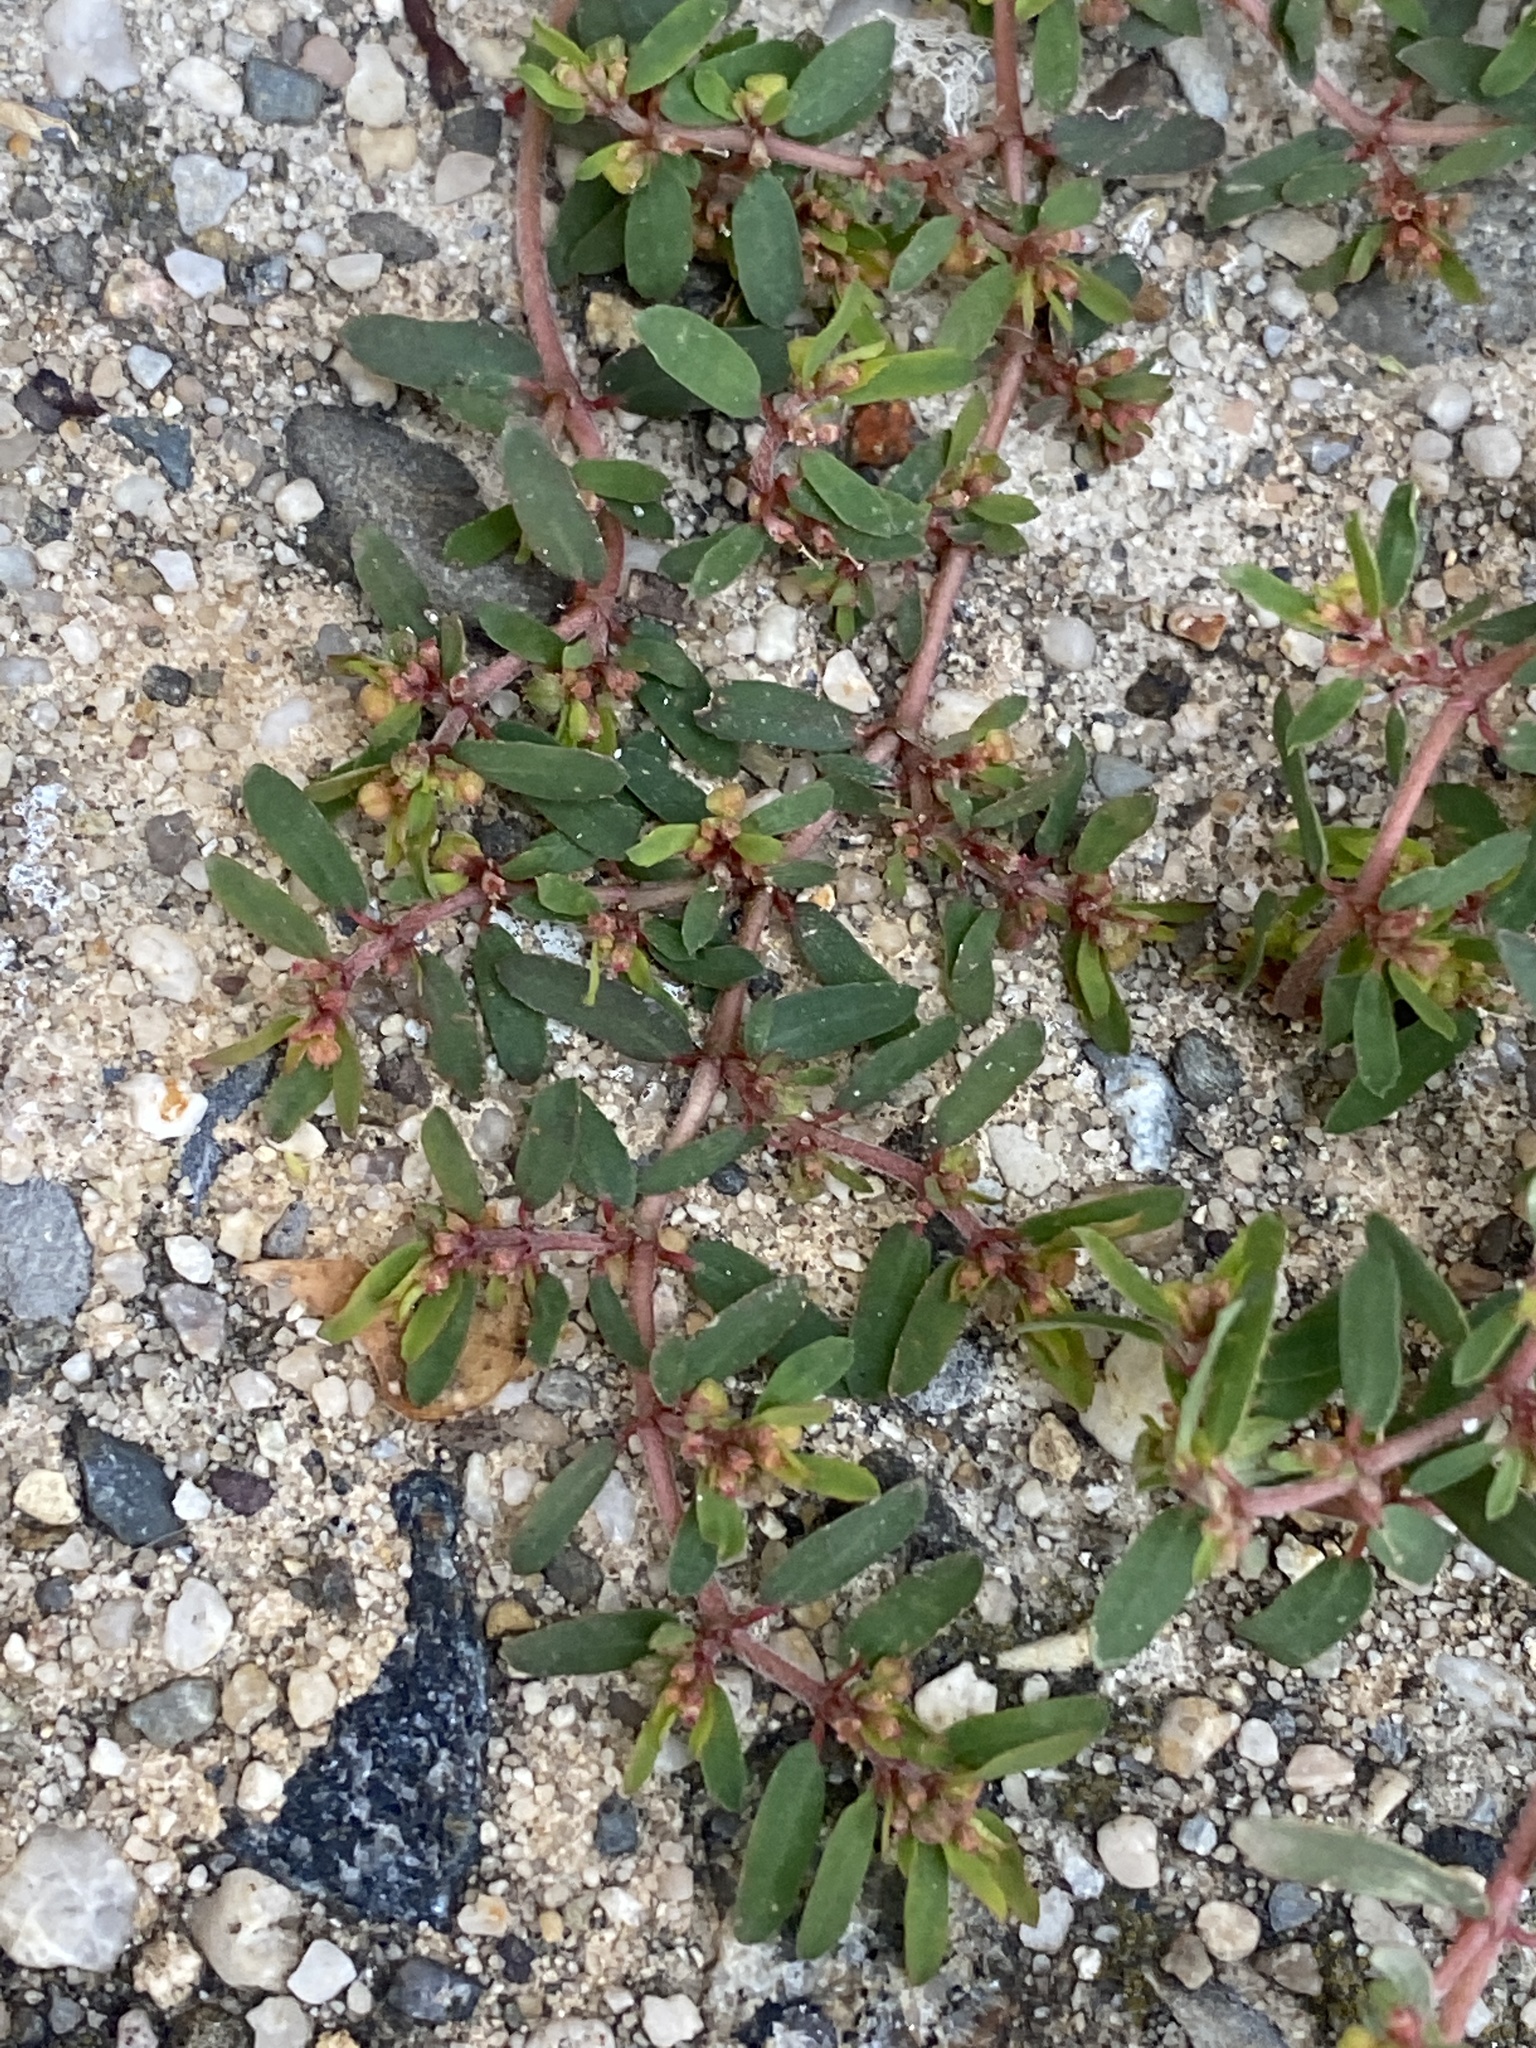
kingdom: Plantae
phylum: Tracheophyta
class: Magnoliopsida
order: Malpighiales
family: Euphorbiaceae
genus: Euphorbia
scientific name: Euphorbia maculata
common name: Spotted spurge
